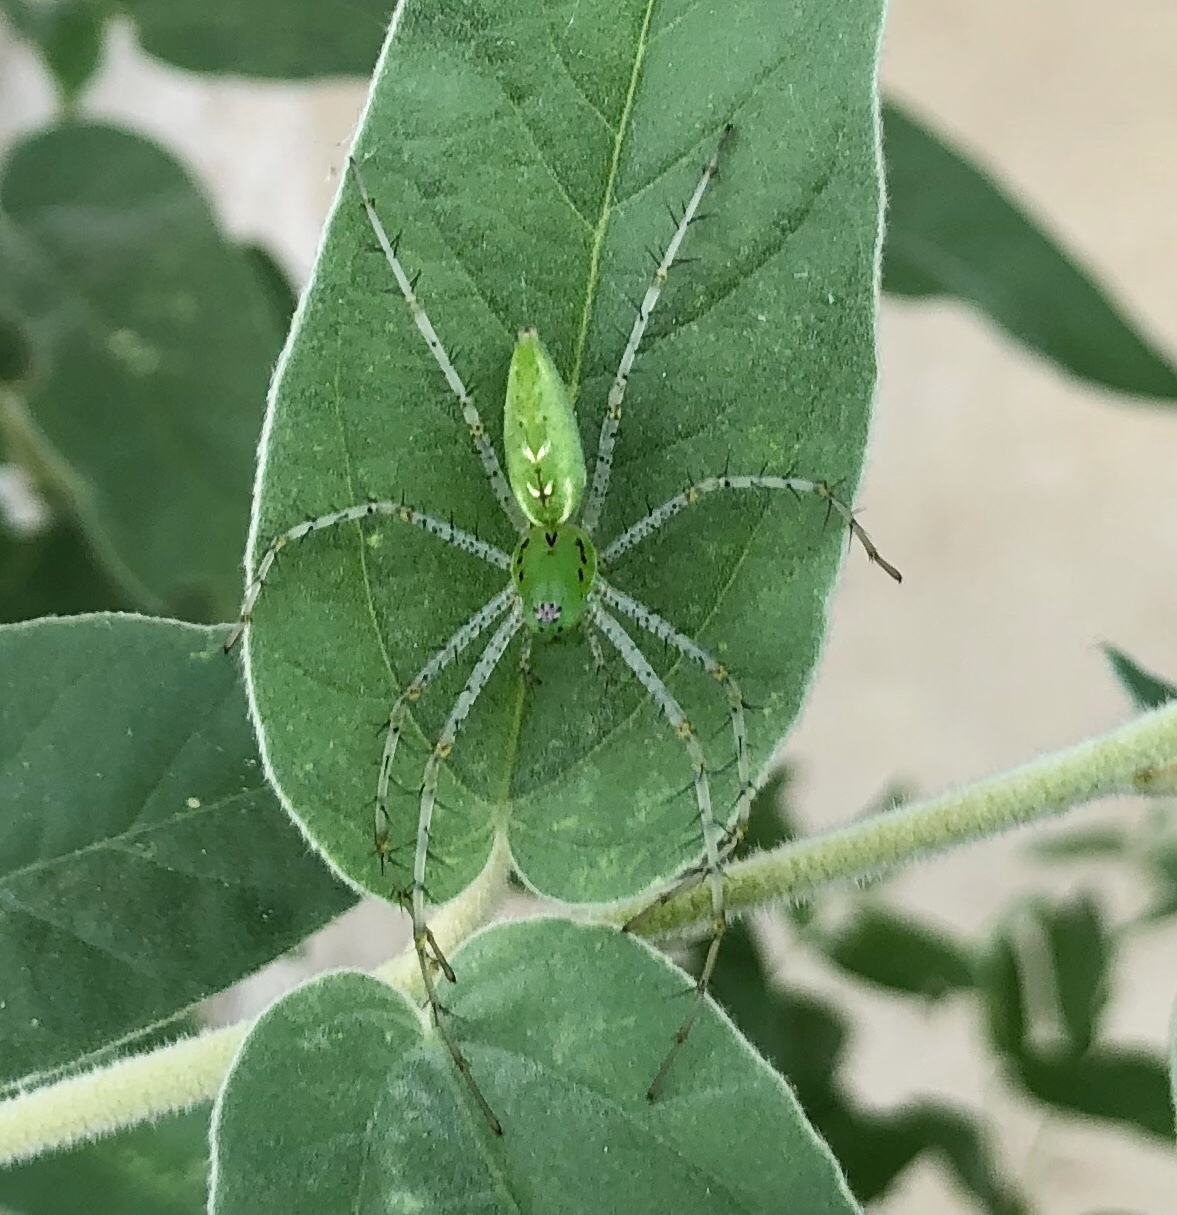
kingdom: Animalia
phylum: Arthropoda
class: Arachnida
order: Araneae
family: Oxyopidae
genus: Peucetia
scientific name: Peucetia viridans
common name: Lynx spiders
